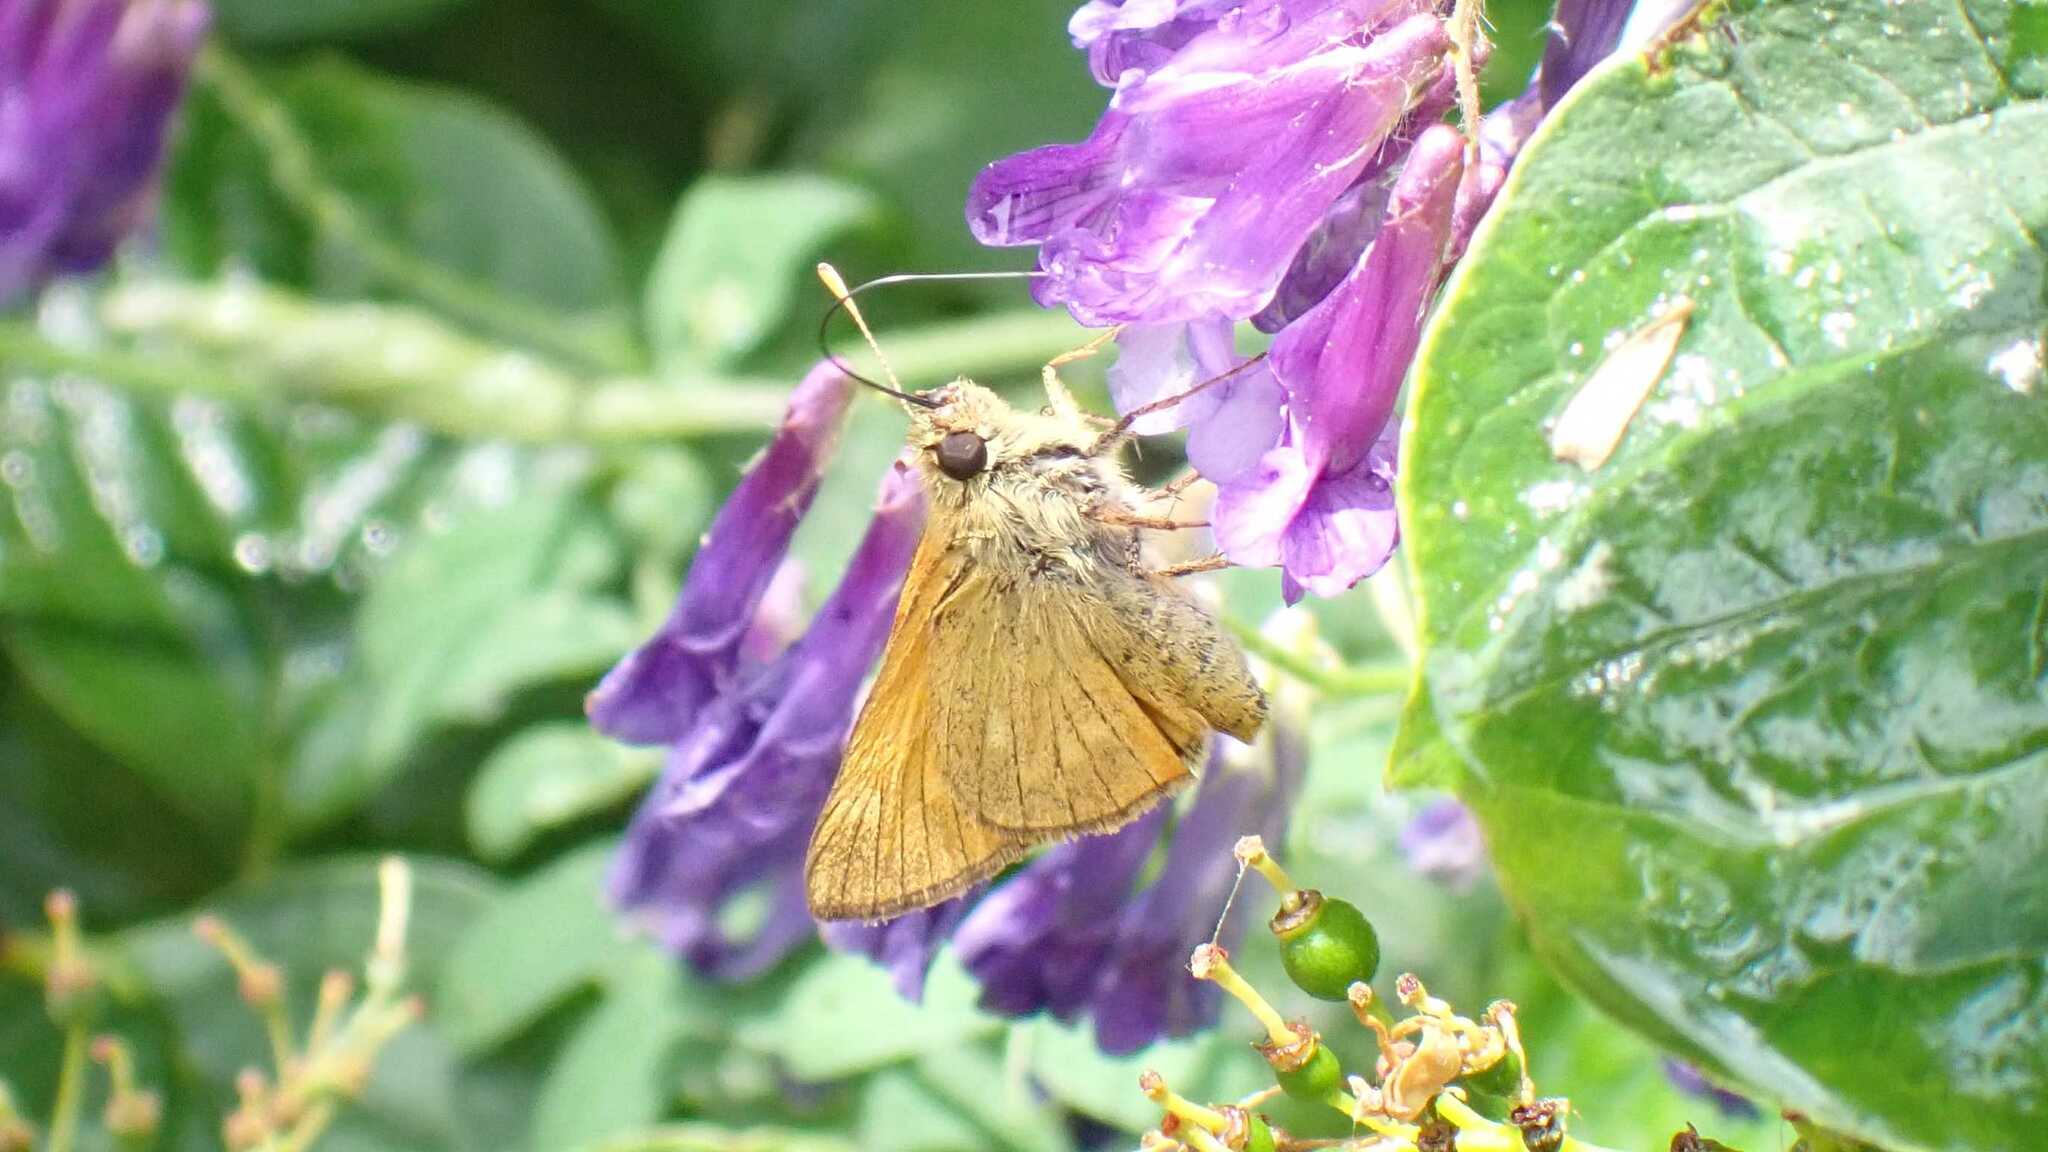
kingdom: Animalia
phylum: Arthropoda
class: Insecta
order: Lepidoptera
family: Hesperiidae
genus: Ochlodes
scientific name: Ochlodes venata
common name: Large skipper
